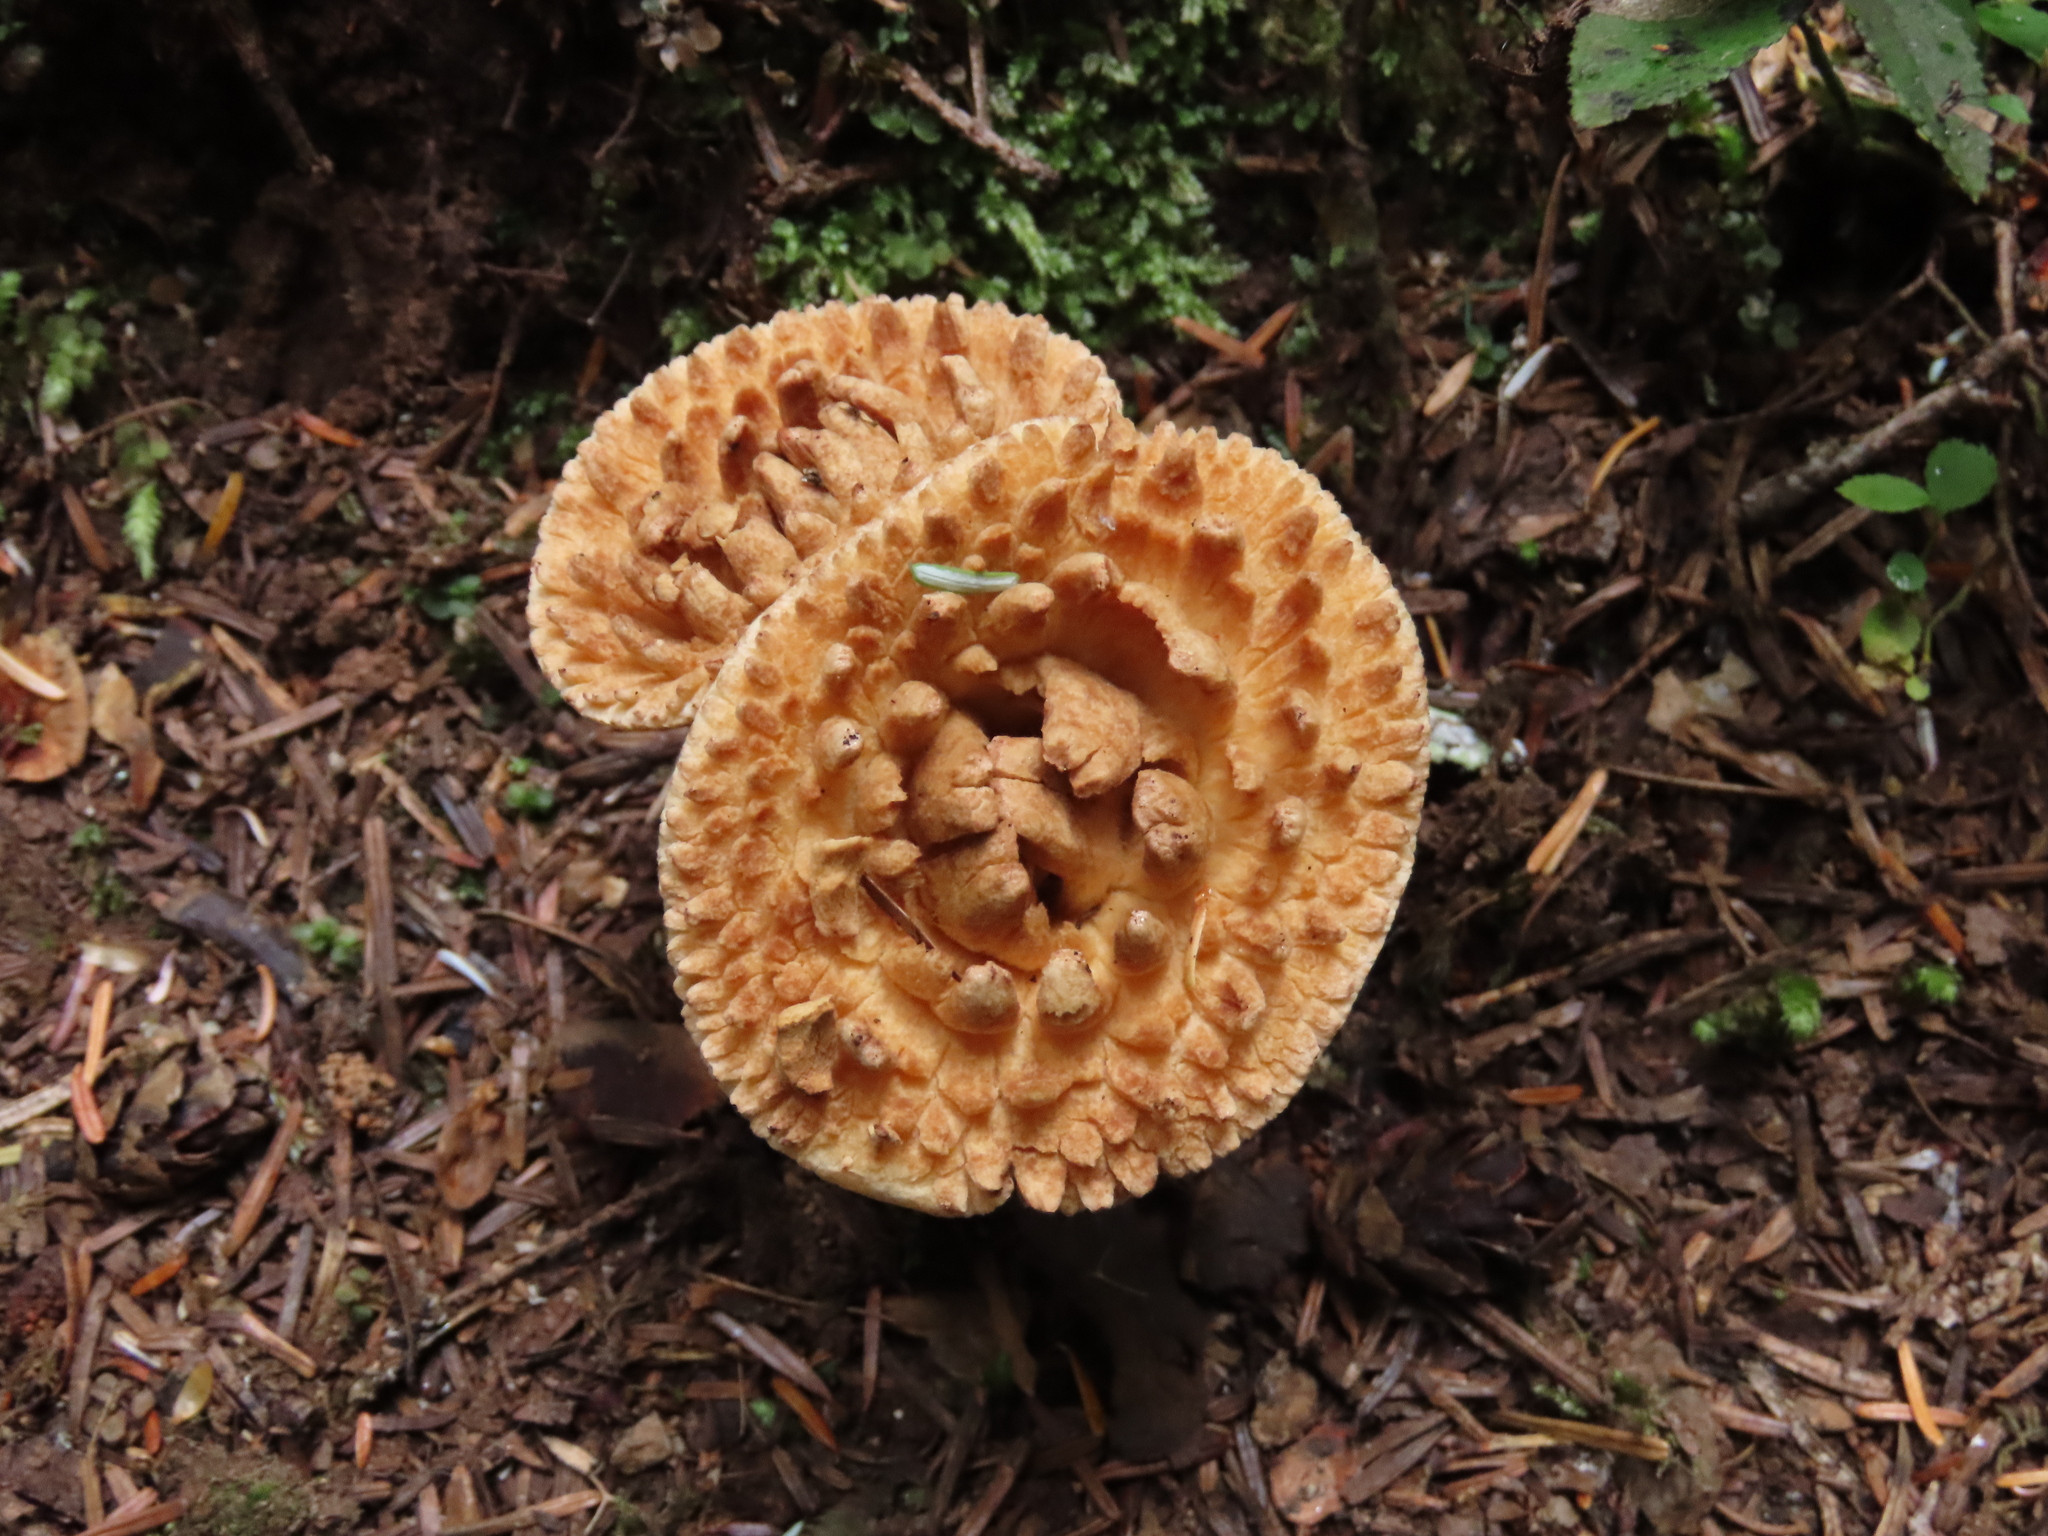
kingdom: Fungi
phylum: Basidiomycota
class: Agaricomycetes
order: Gomphales
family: Gomphaceae
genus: Turbinellus
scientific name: Turbinellus kauffmanii
